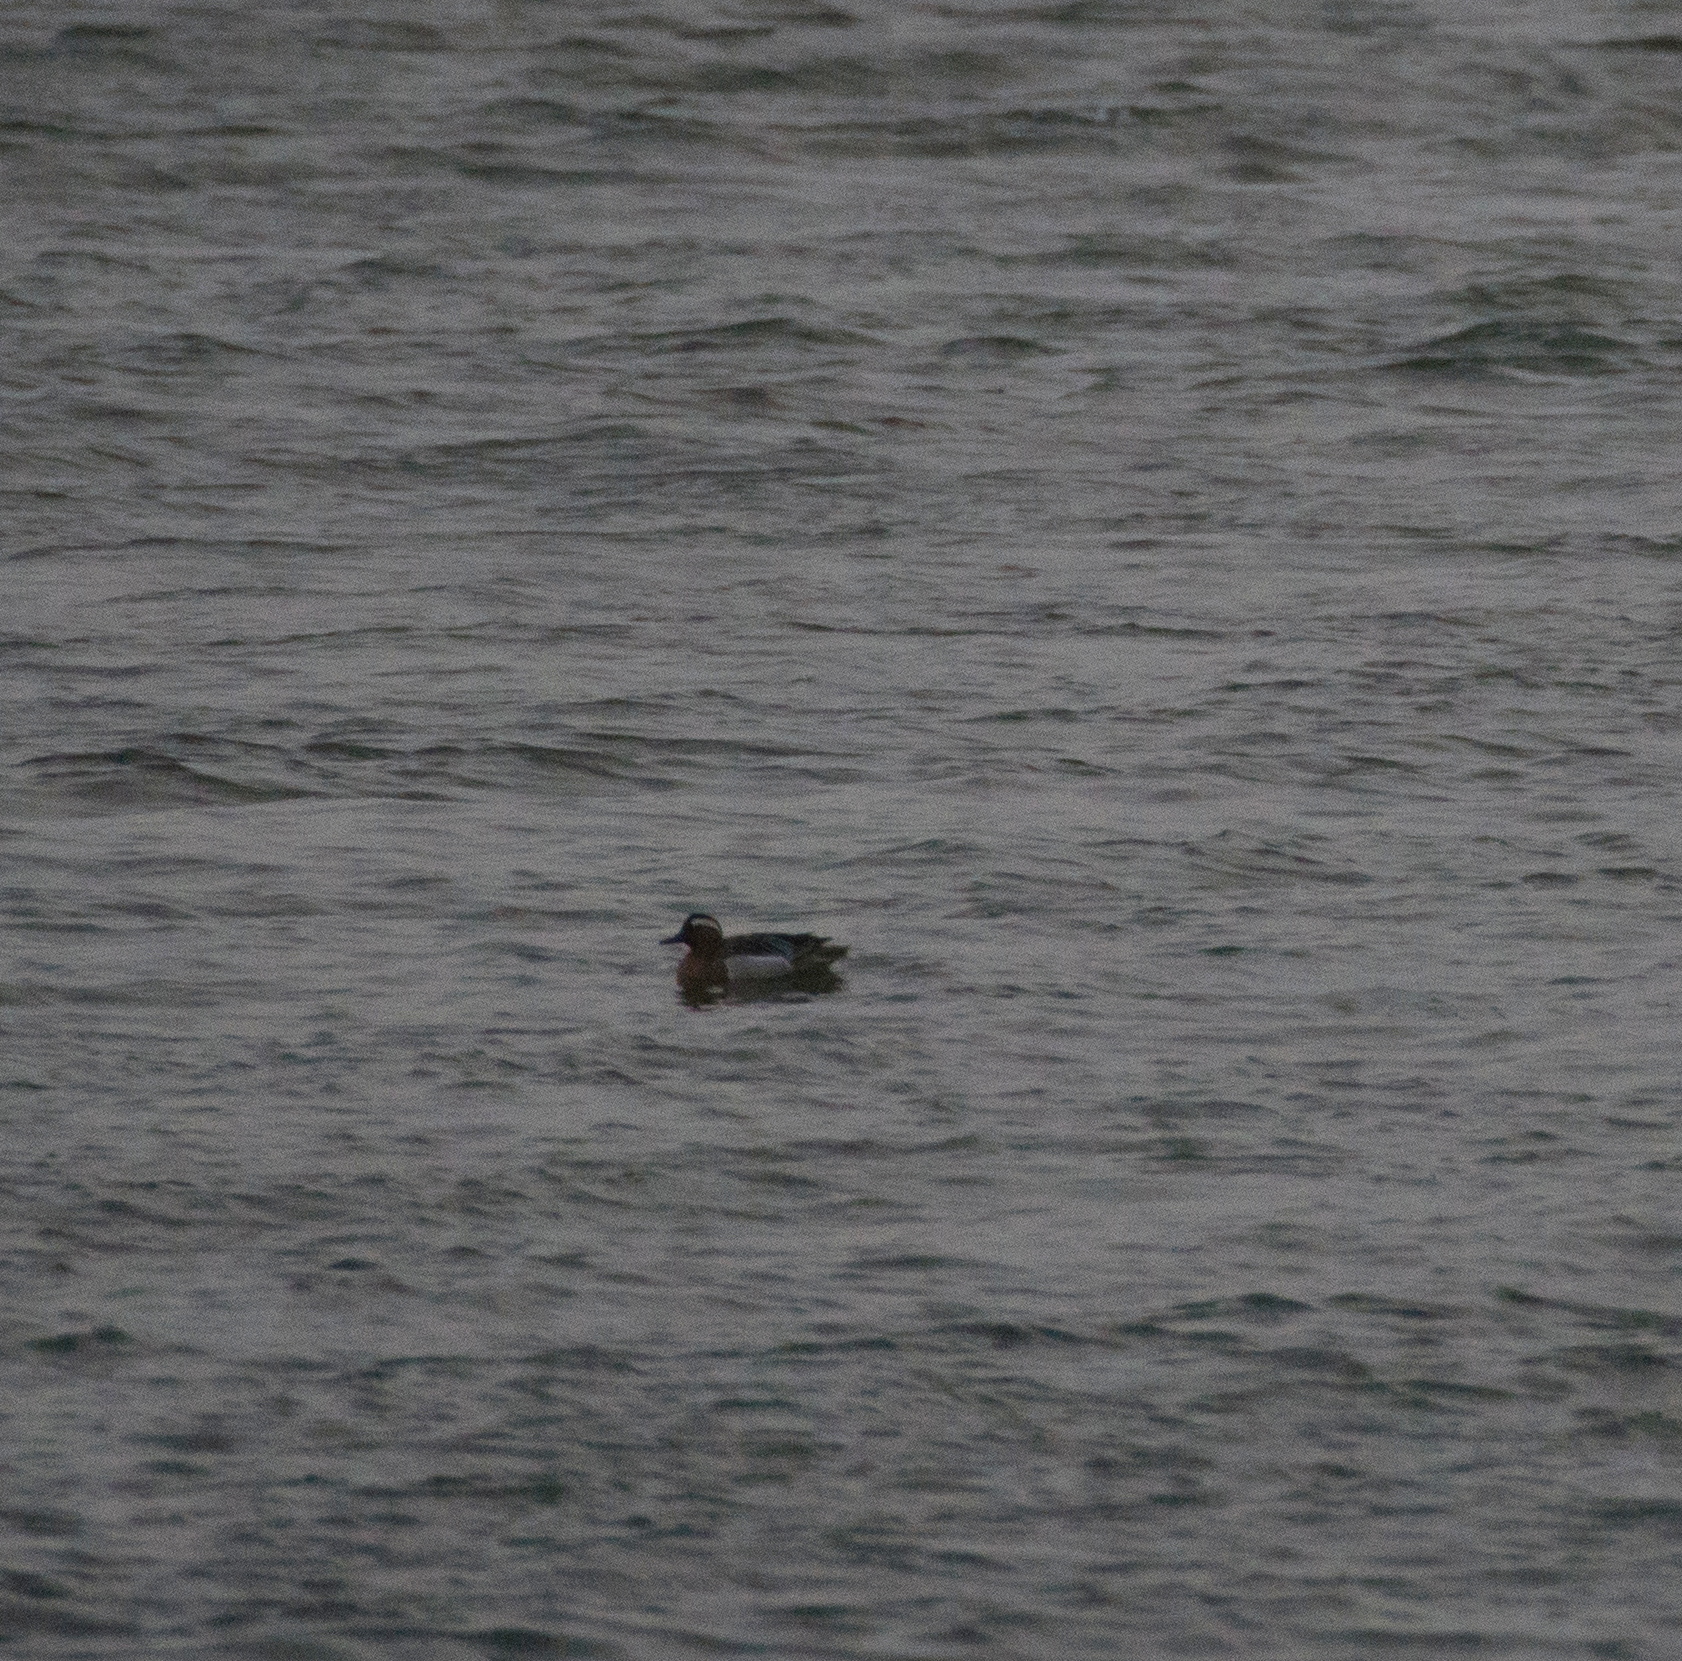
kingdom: Animalia
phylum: Chordata
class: Aves
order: Anseriformes
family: Anatidae
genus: Spatula
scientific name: Spatula querquedula
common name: Garganey
